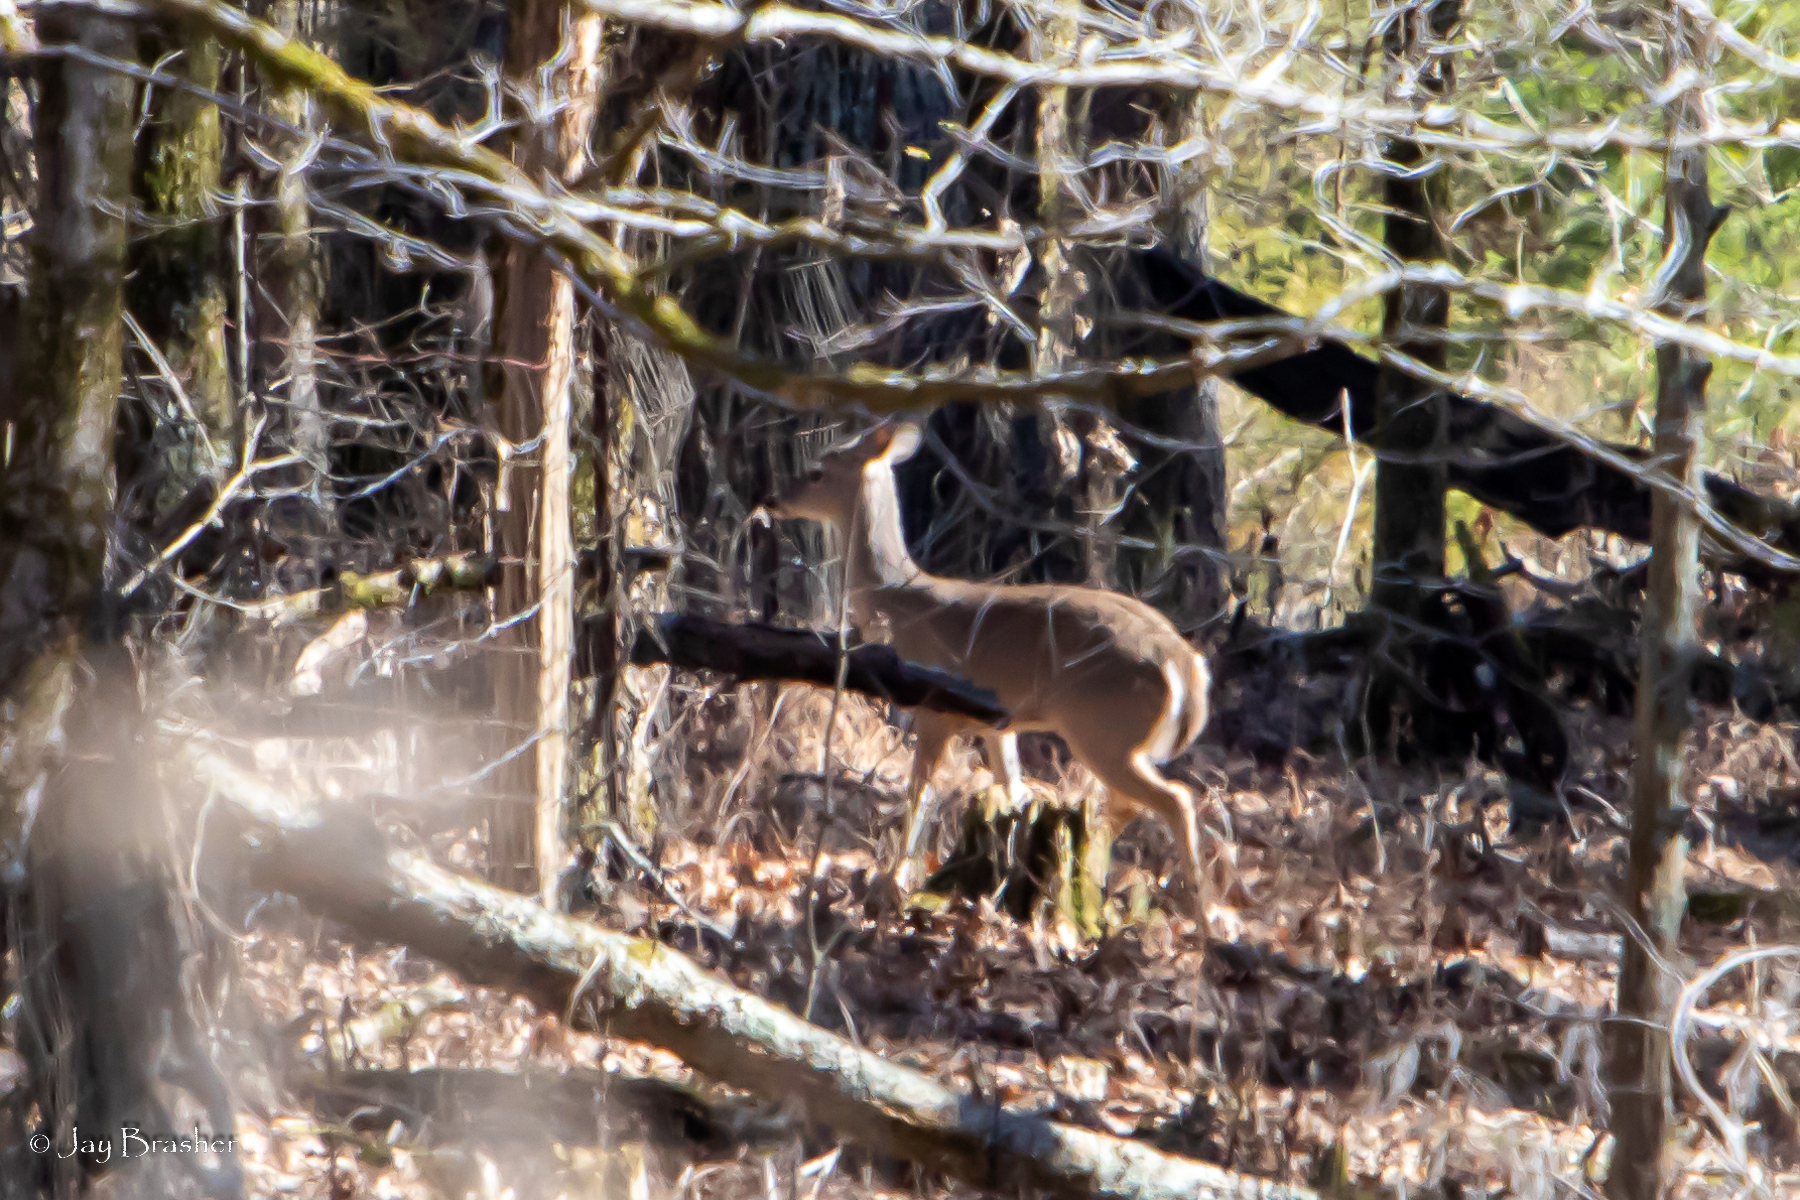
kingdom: Animalia
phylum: Chordata
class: Mammalia
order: Artiodactyla
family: Cervidae
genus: Odocoileus
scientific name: Odocoileus virginianus
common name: White-tailed deer
